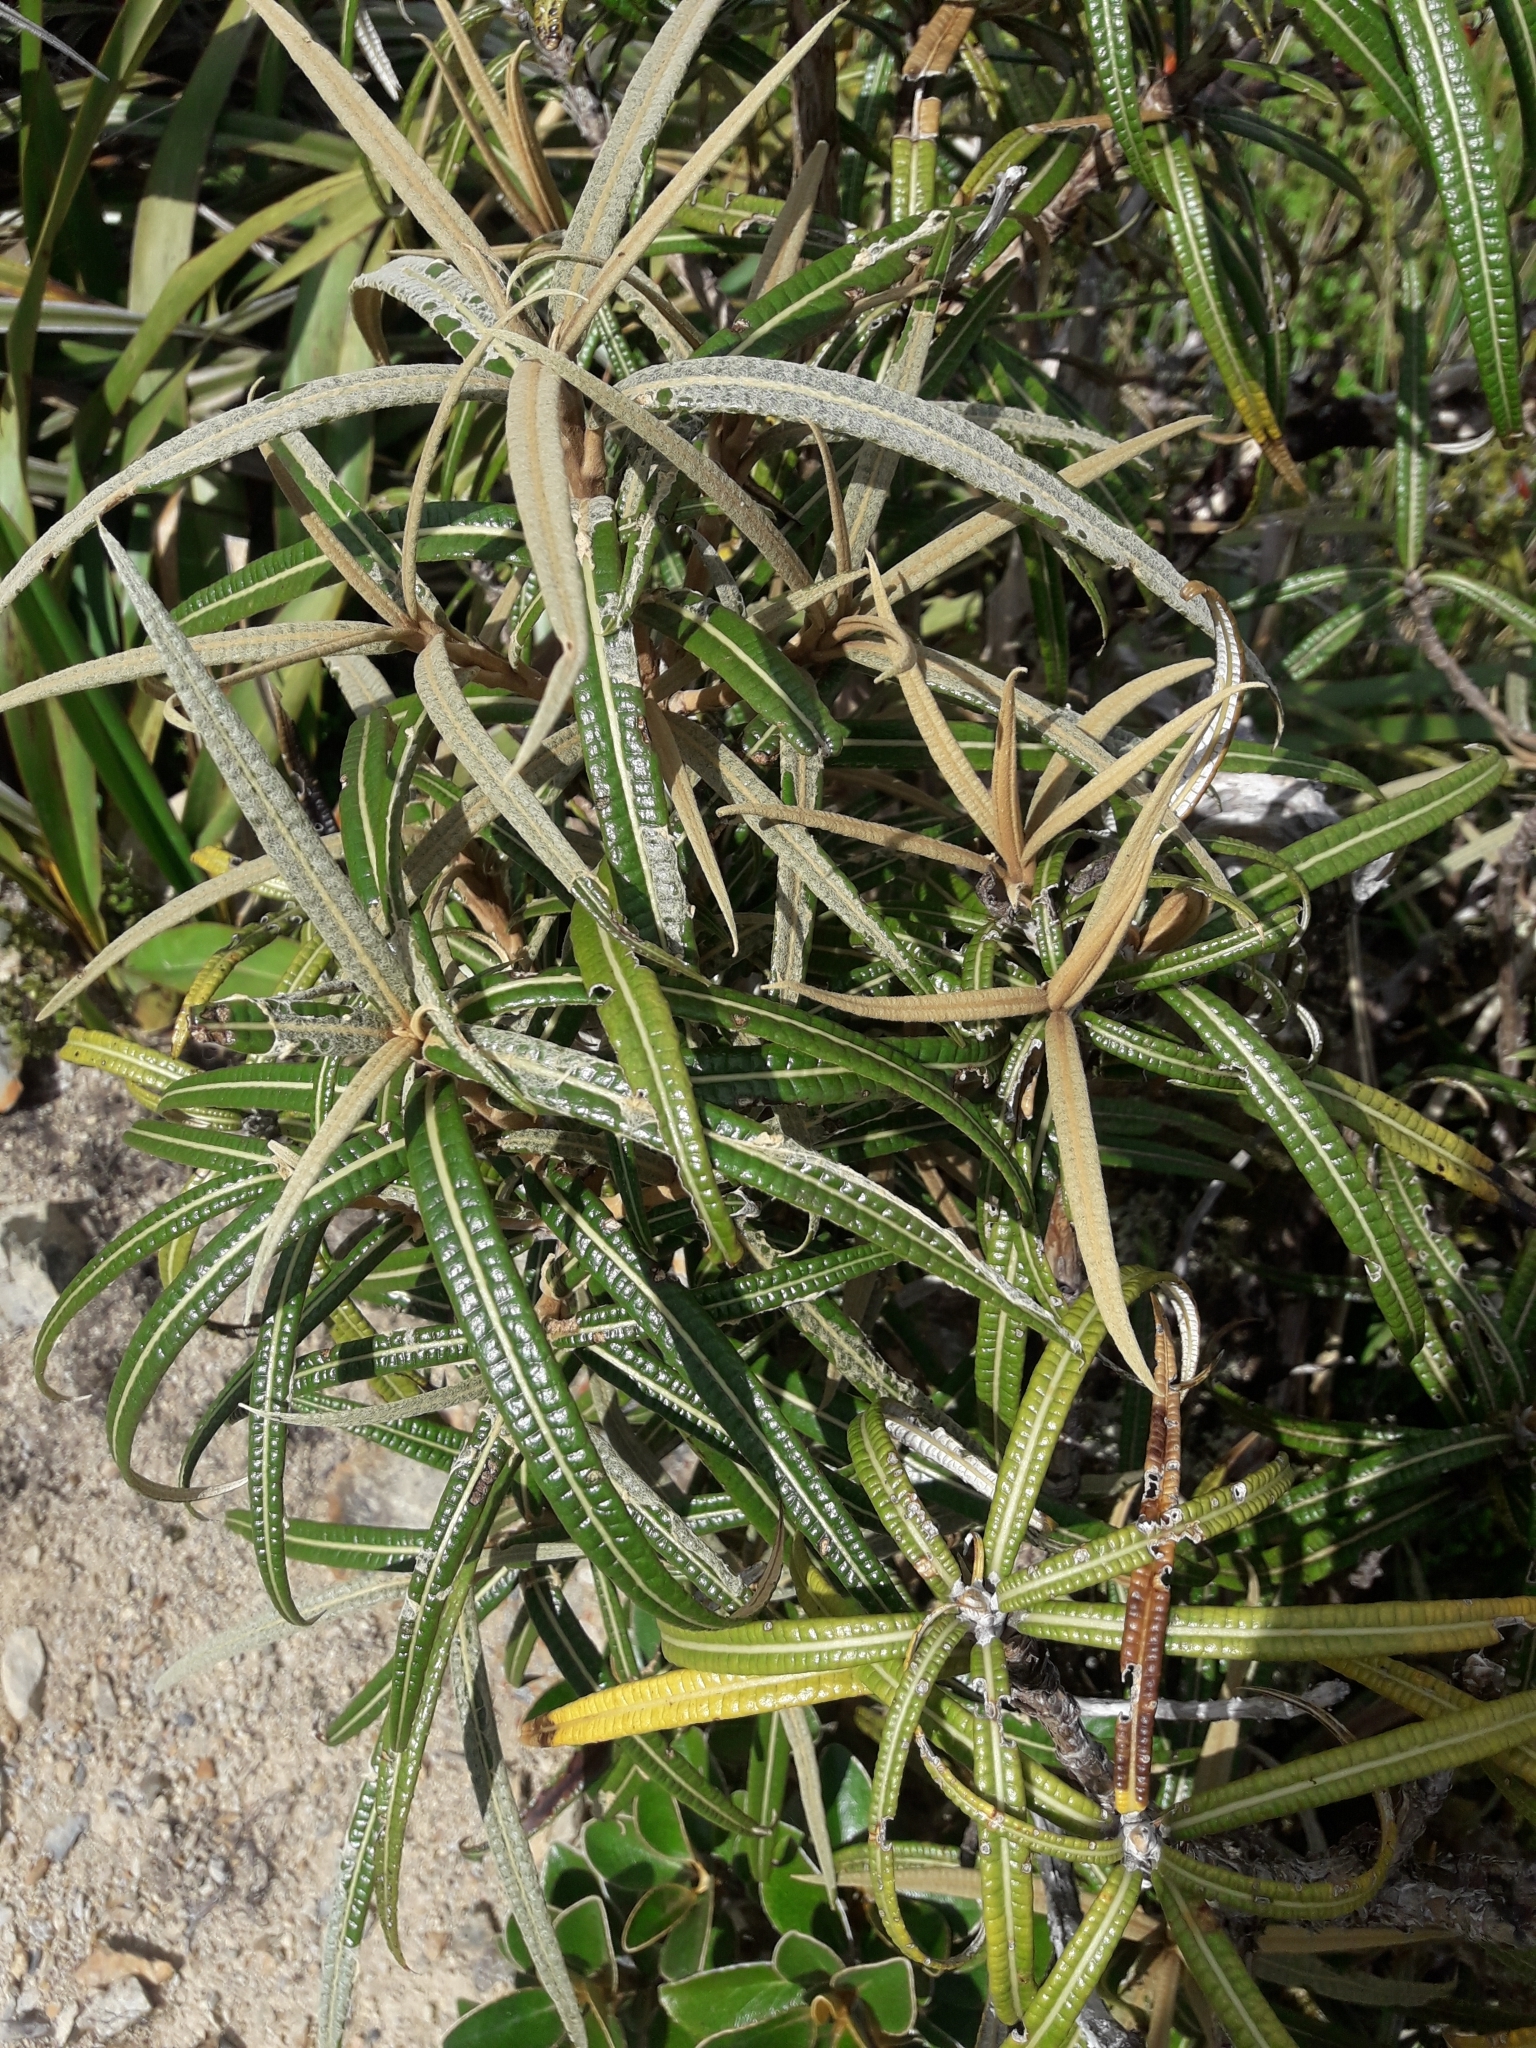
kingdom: Plantae
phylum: Tracheophyta
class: Magnoliopsida
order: Asterales
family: Asteraceae
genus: Olearia
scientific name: Olearia lacunosa
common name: Lancewood tree daisy
